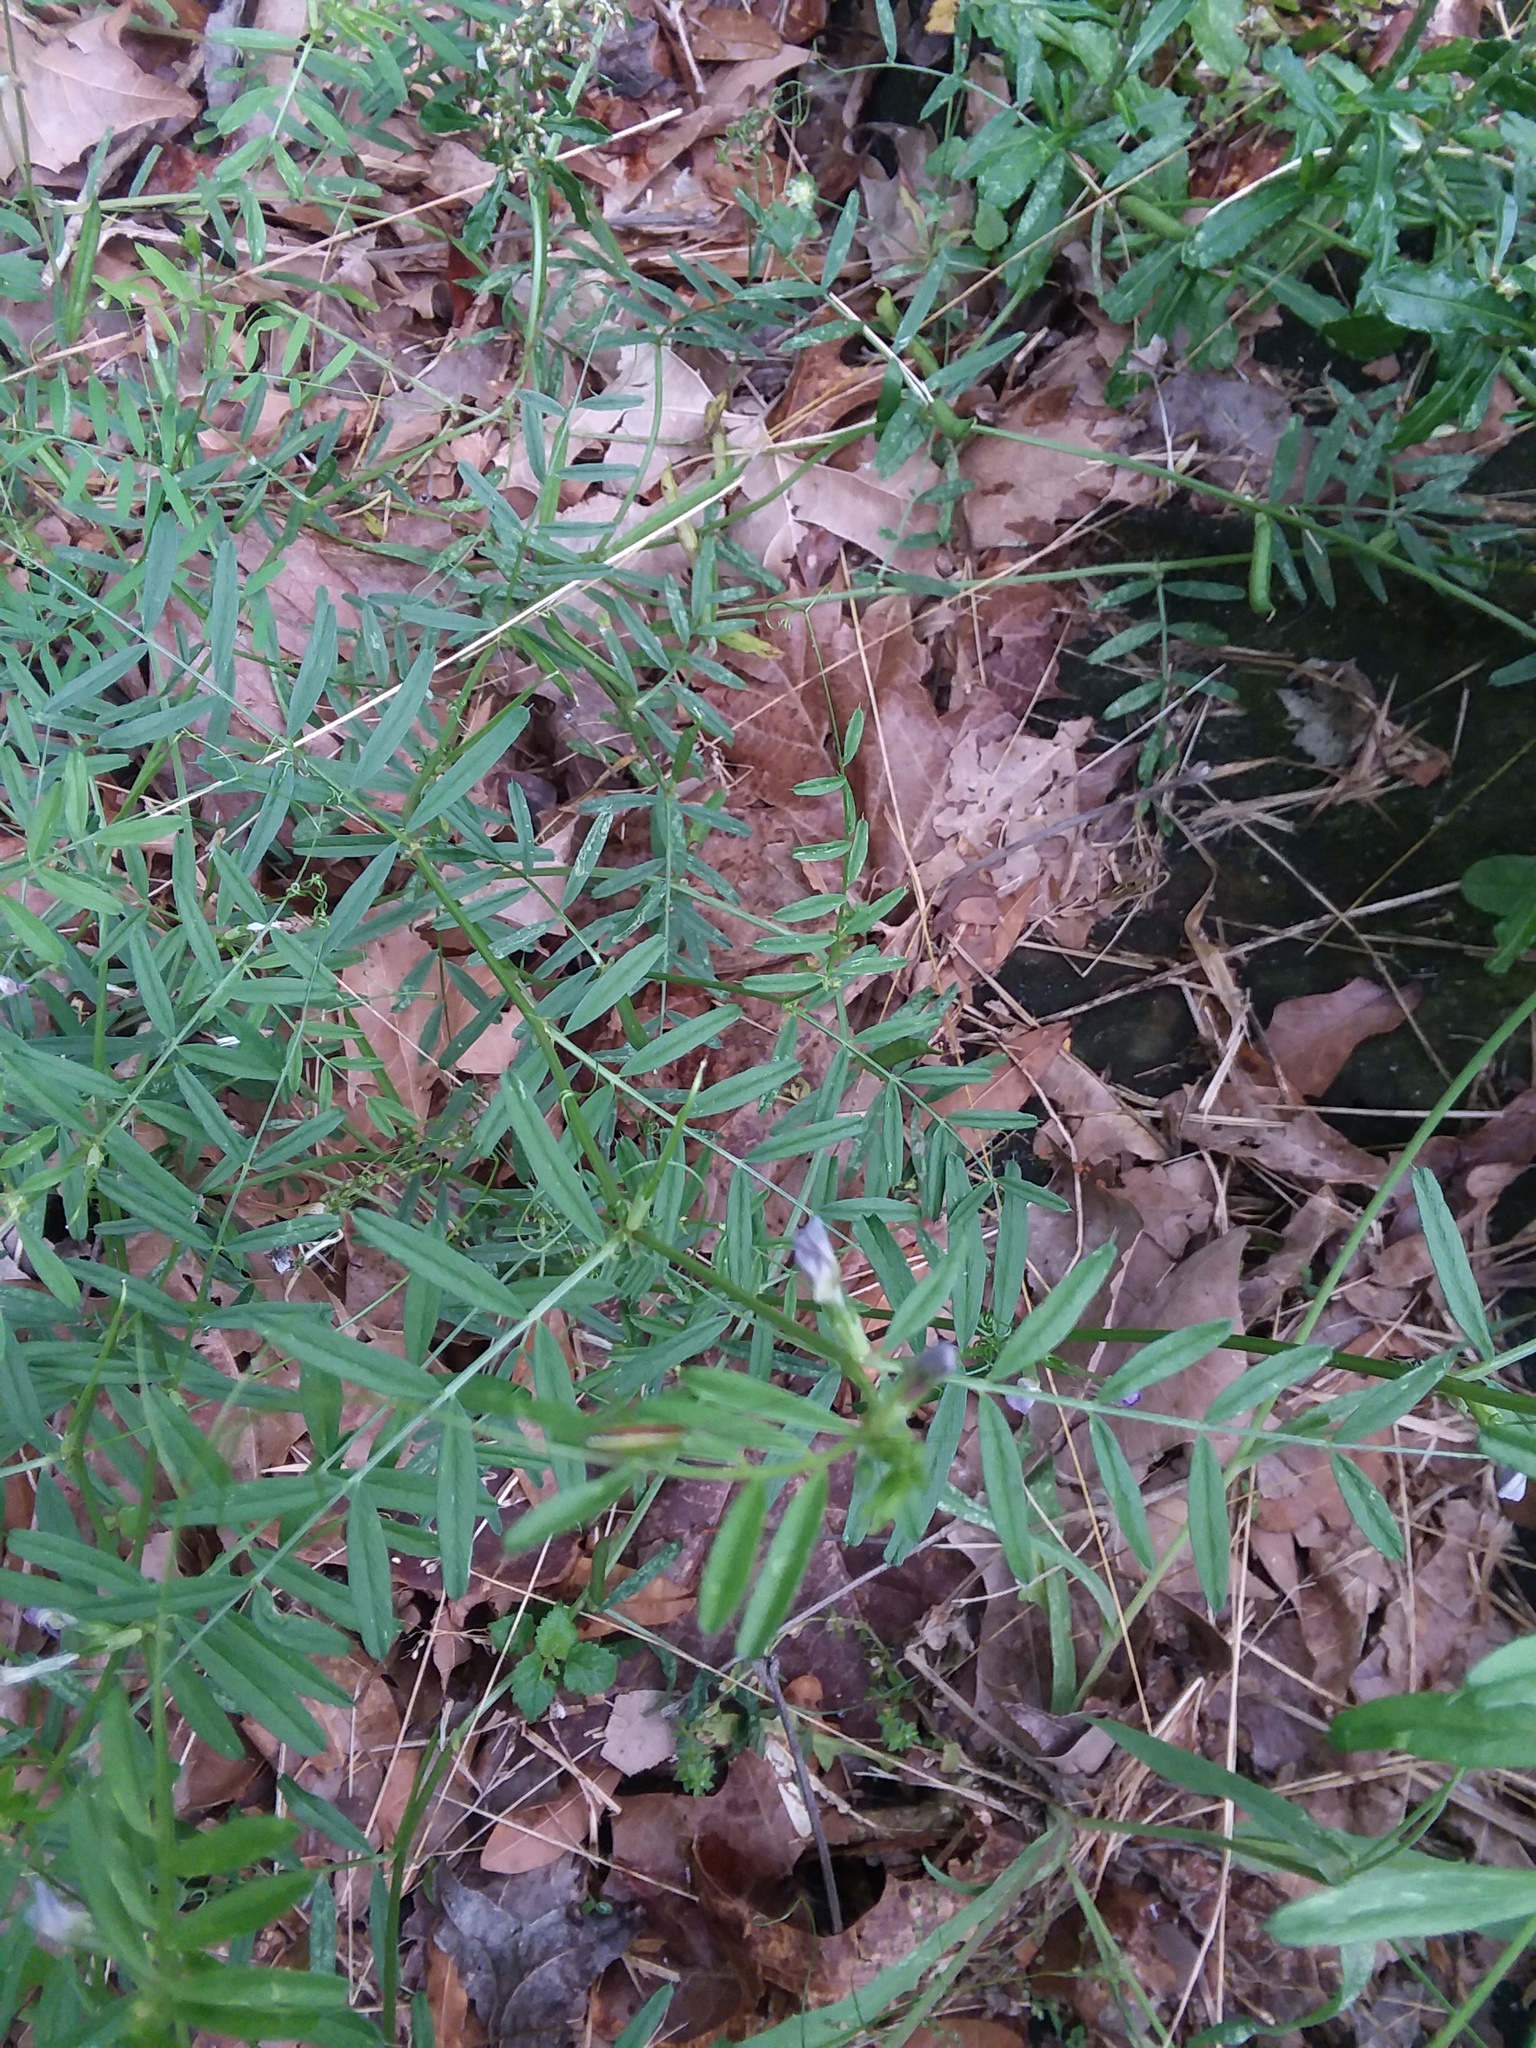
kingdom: Plantae
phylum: Tracheophyta
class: Magnoliopsida
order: Fabales
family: Fabaceae
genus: Vicia
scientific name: Vicia sativa
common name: Garden vetch
